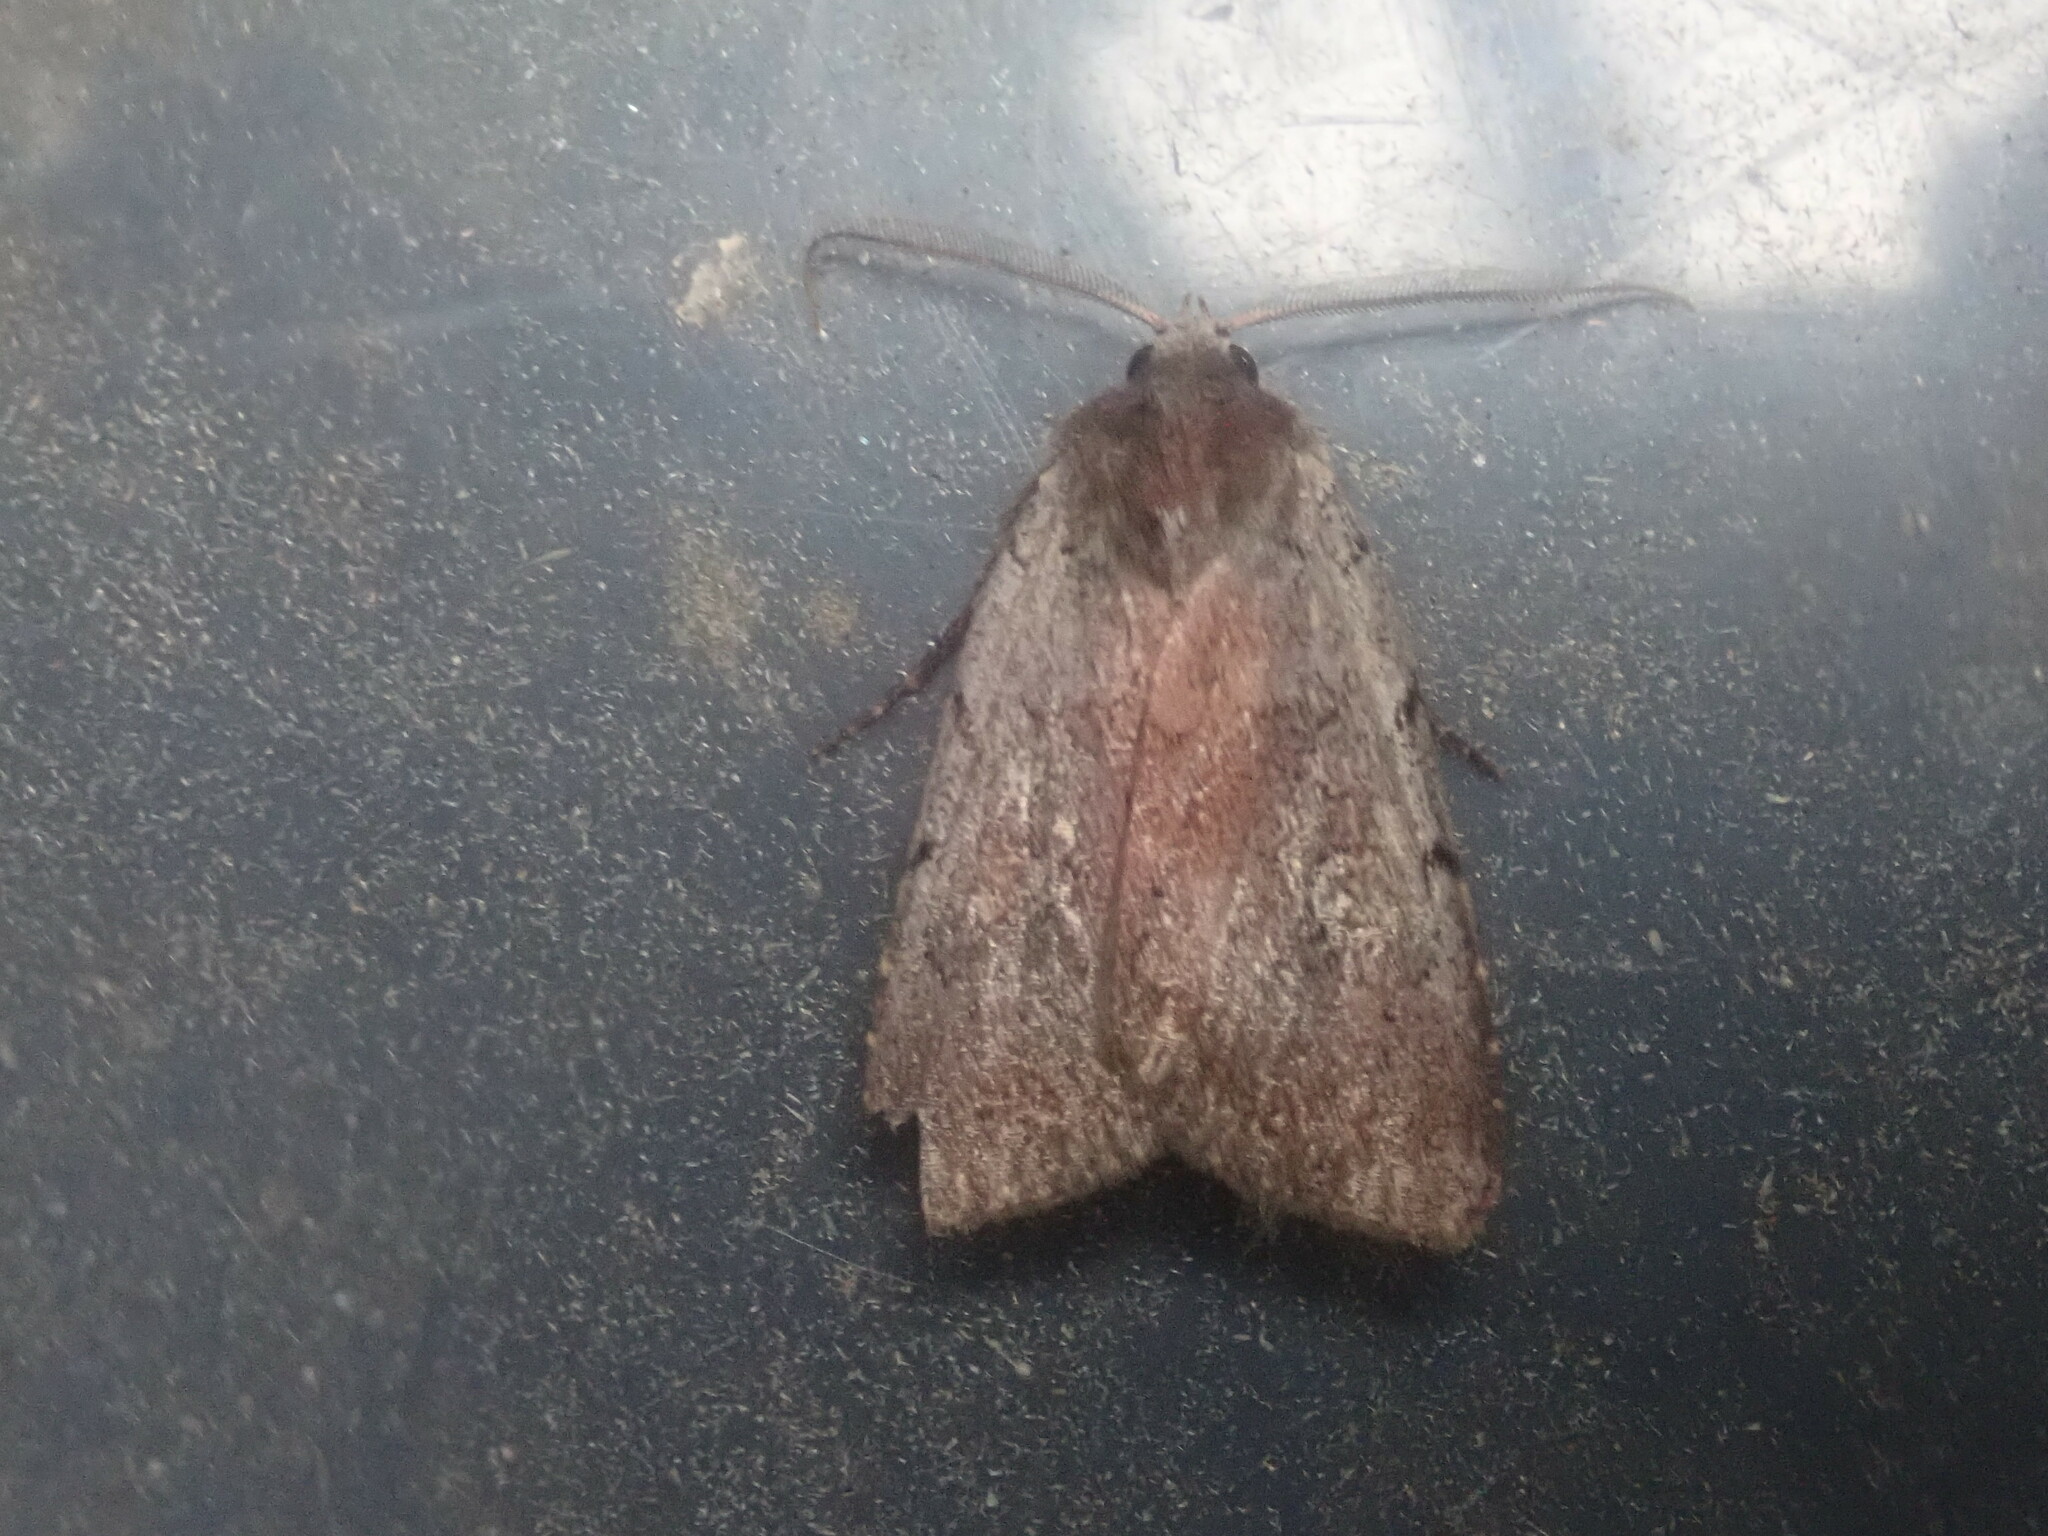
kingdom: Animalia
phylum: Arthropoda
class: Insecta
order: Lepidoptera
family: Noctuidae
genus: Xestia
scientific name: Xestia dilucida
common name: Dull reddish dart
